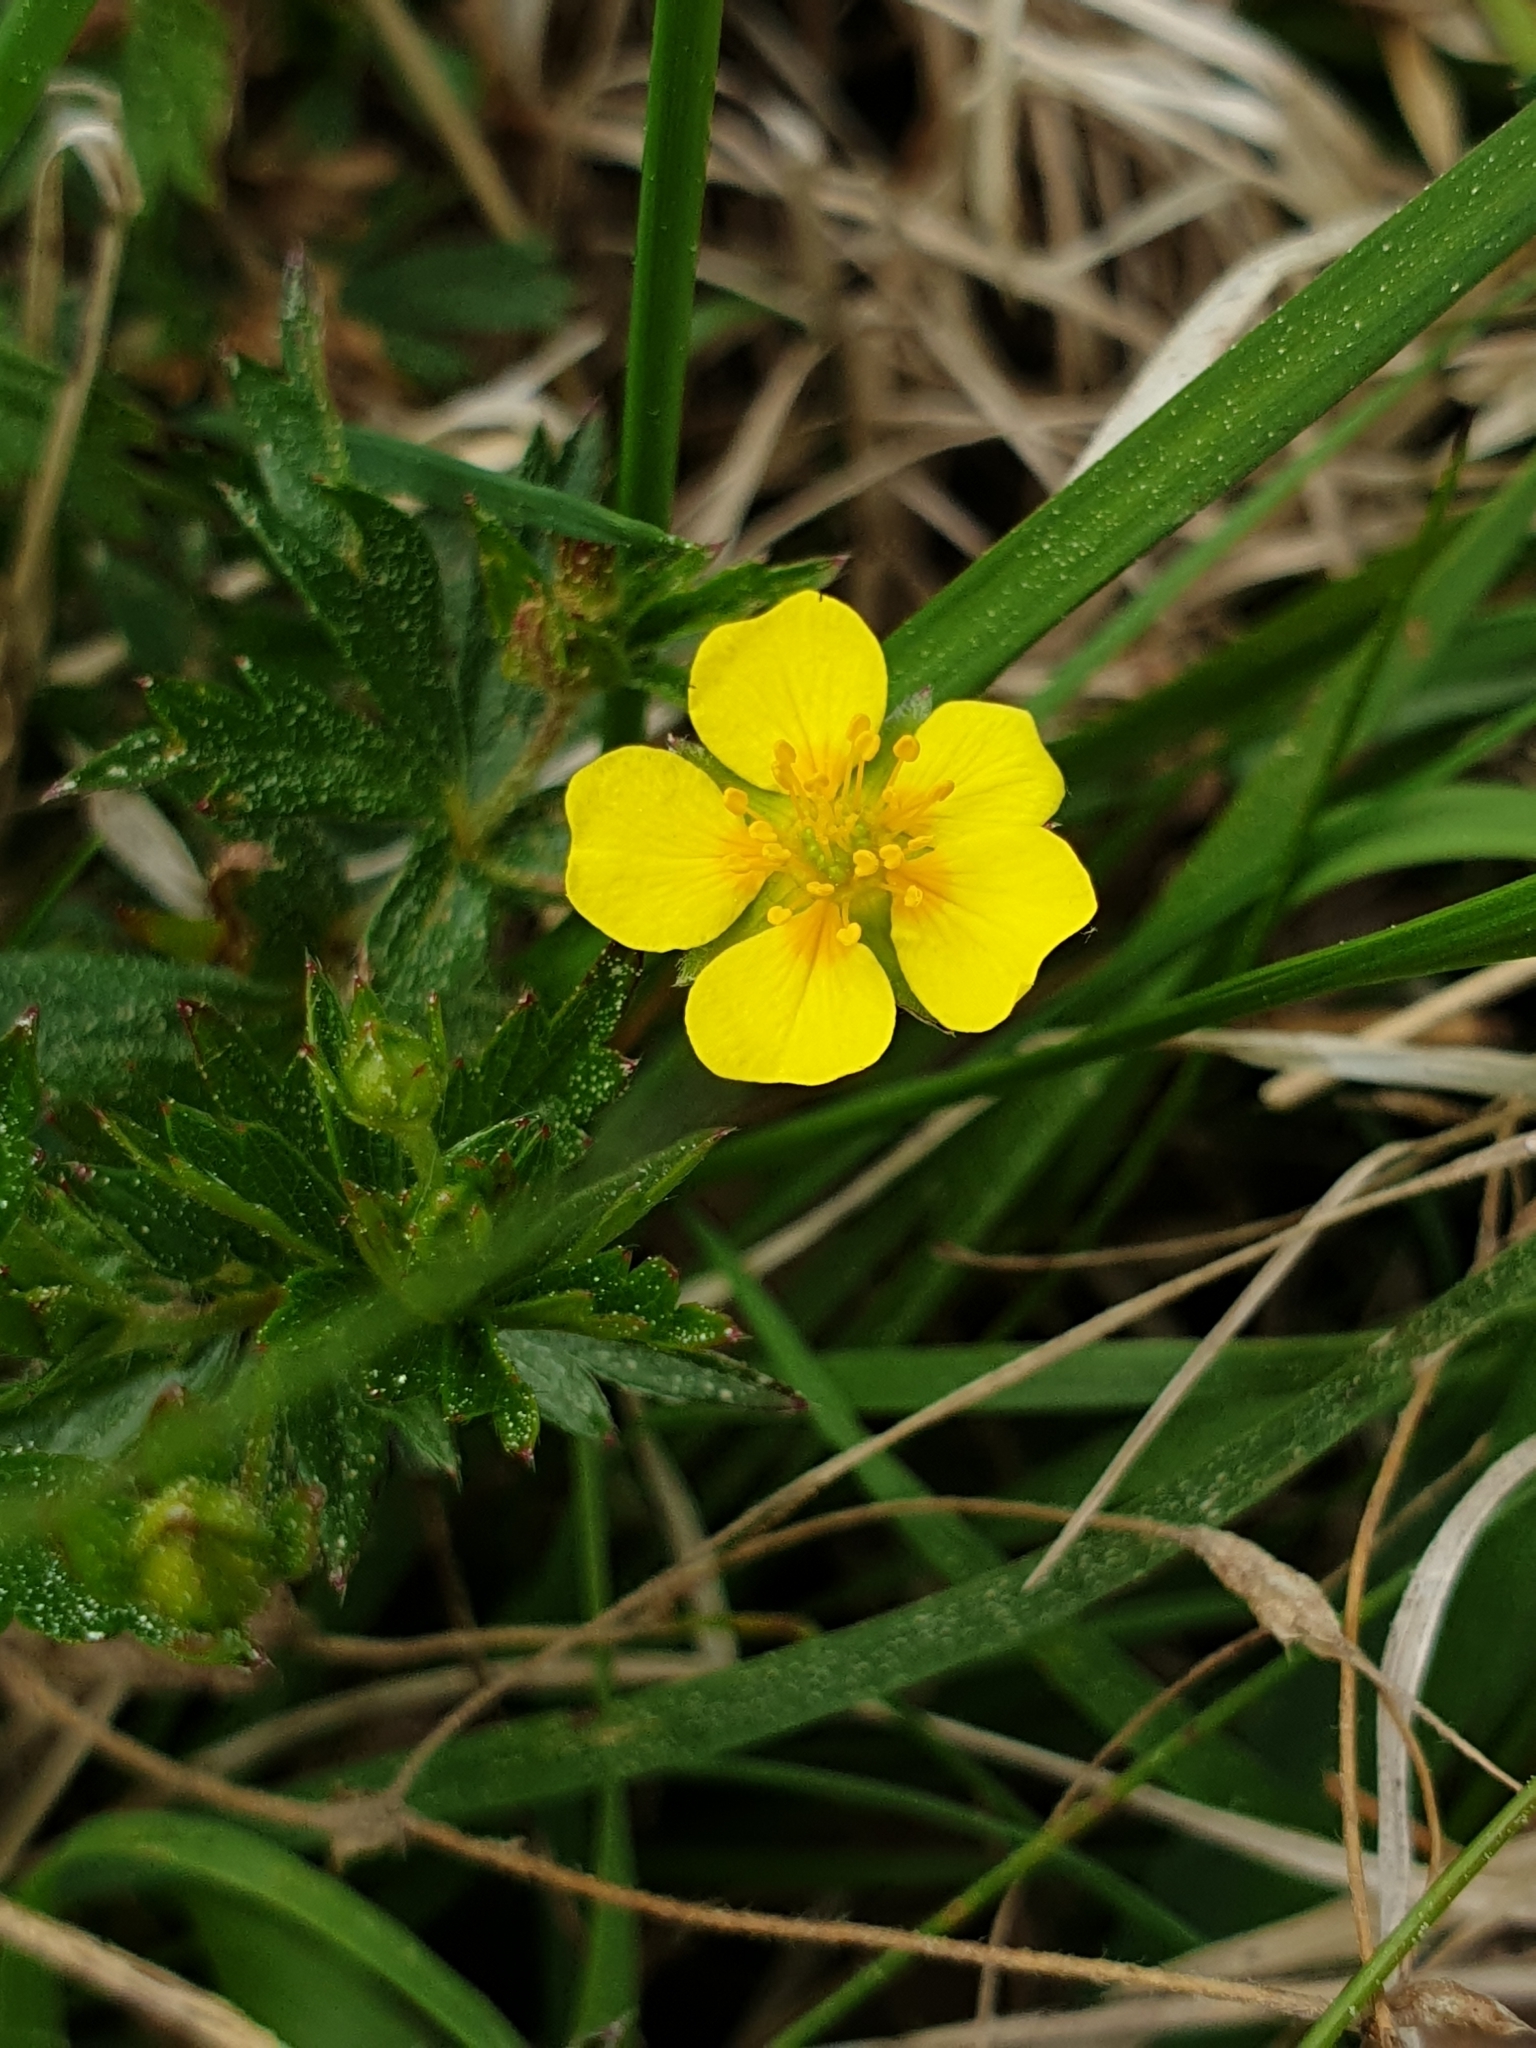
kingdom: Plantae
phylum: Tracheophyta
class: Magnoliopsida
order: Rosales
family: Rosaceae
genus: Potentilla
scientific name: Potentilla erecta
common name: Tormentil
